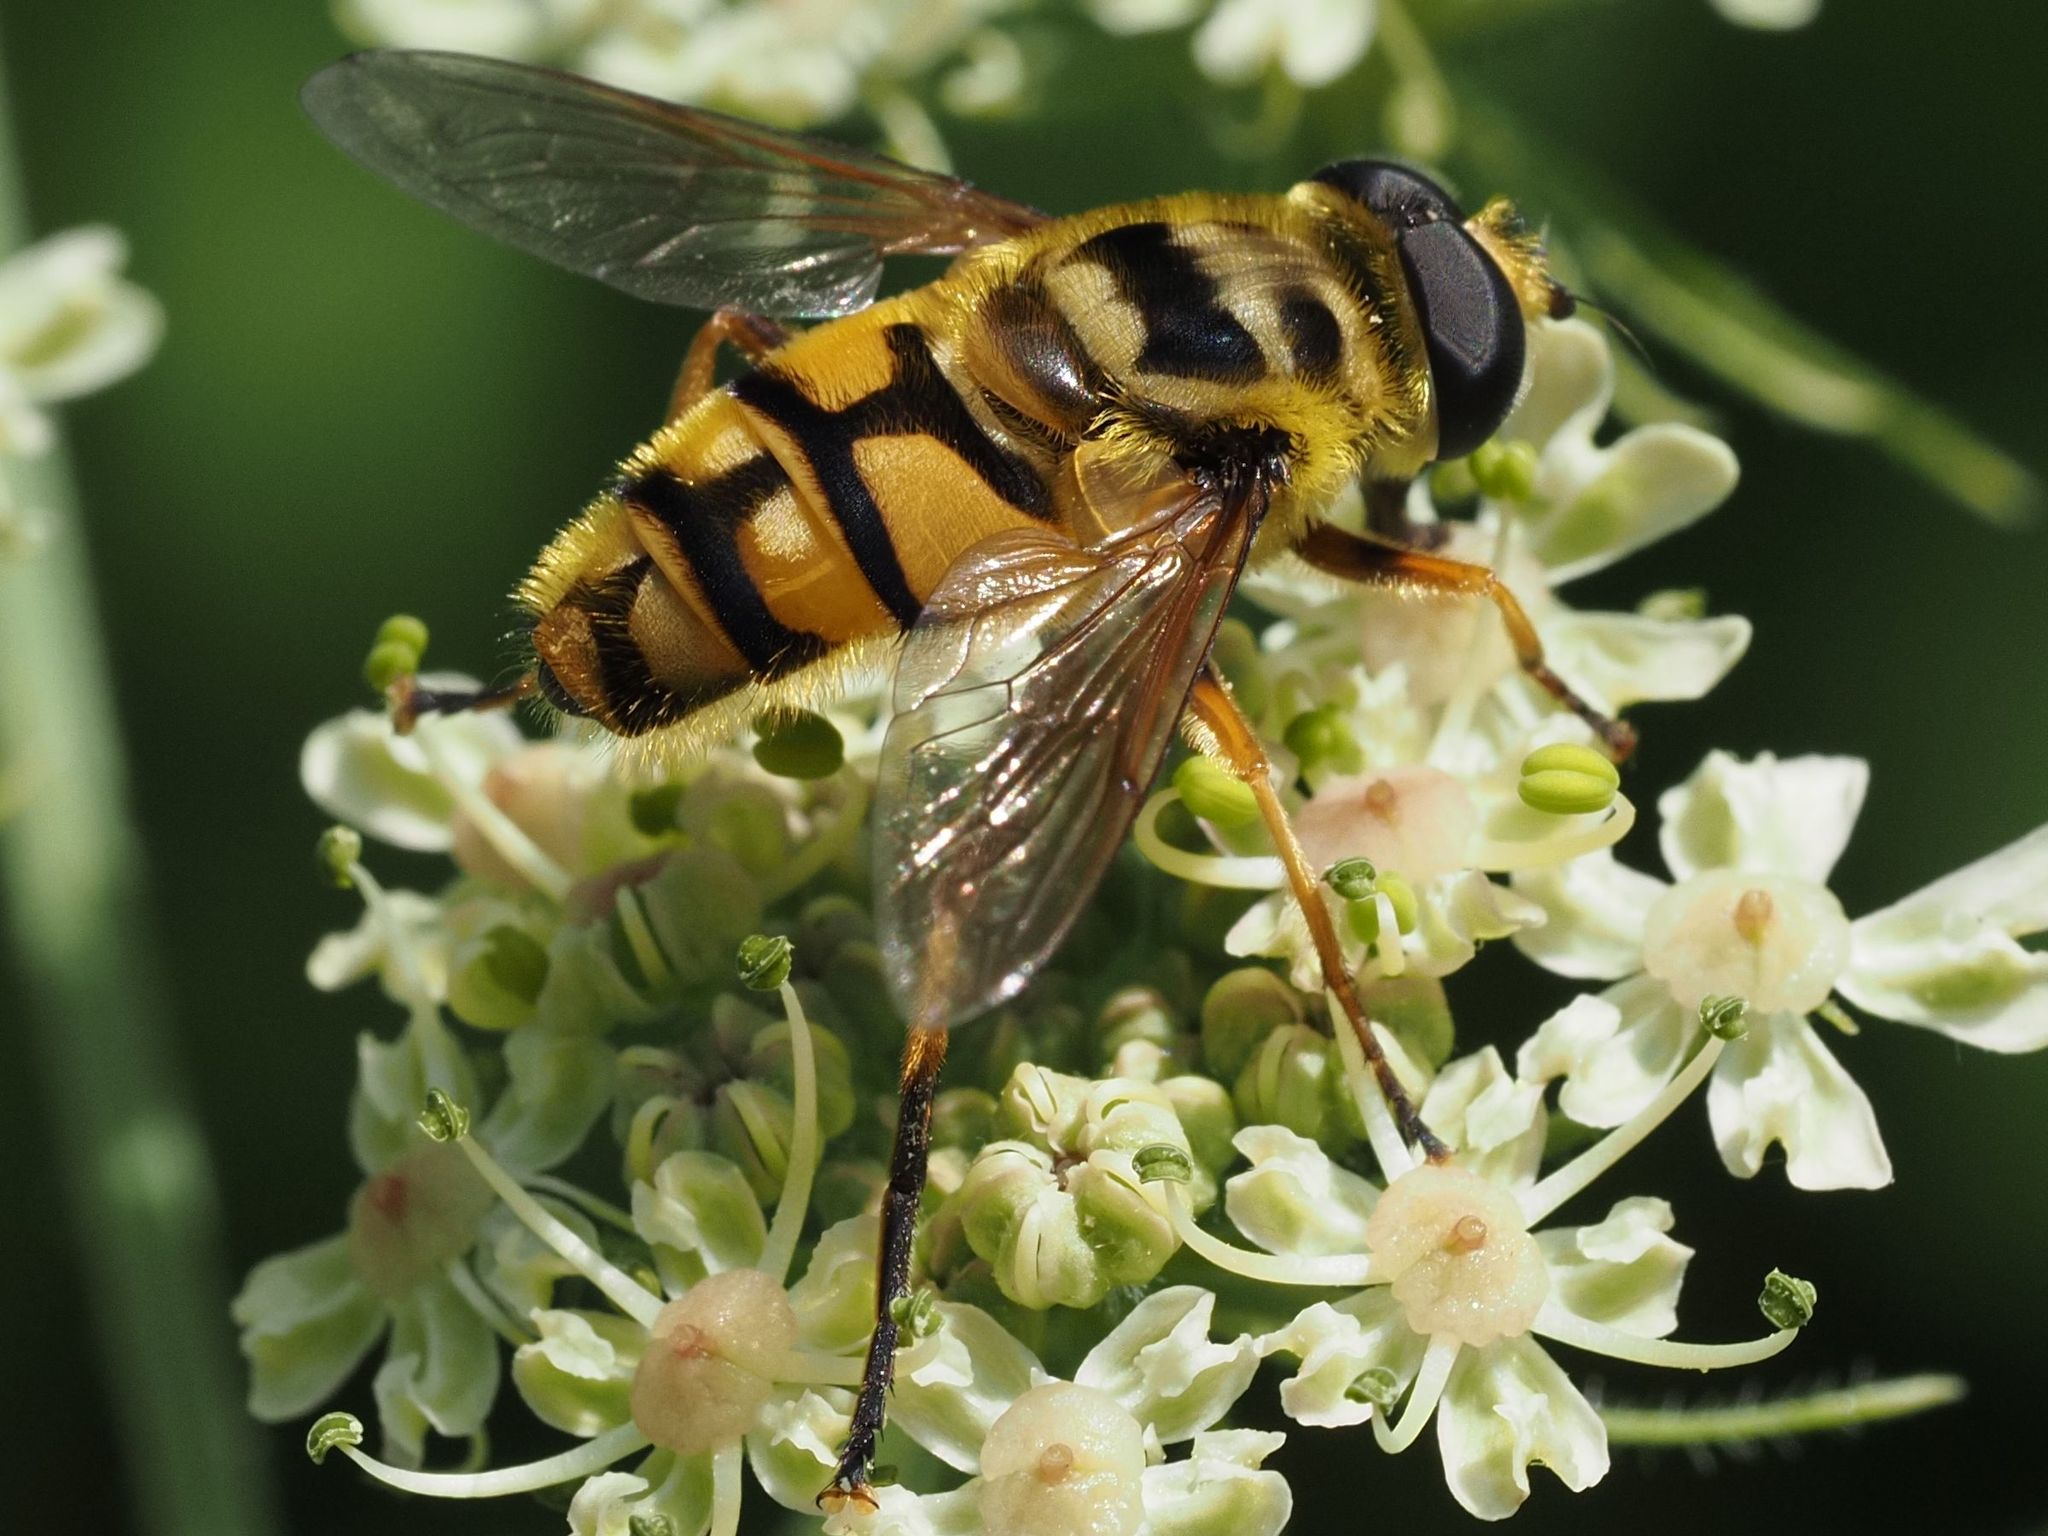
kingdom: Animalia
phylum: Arthropoda
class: Insecta
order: Diptera
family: Syrphidae
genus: Myathropa
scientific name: Myathropa florea
